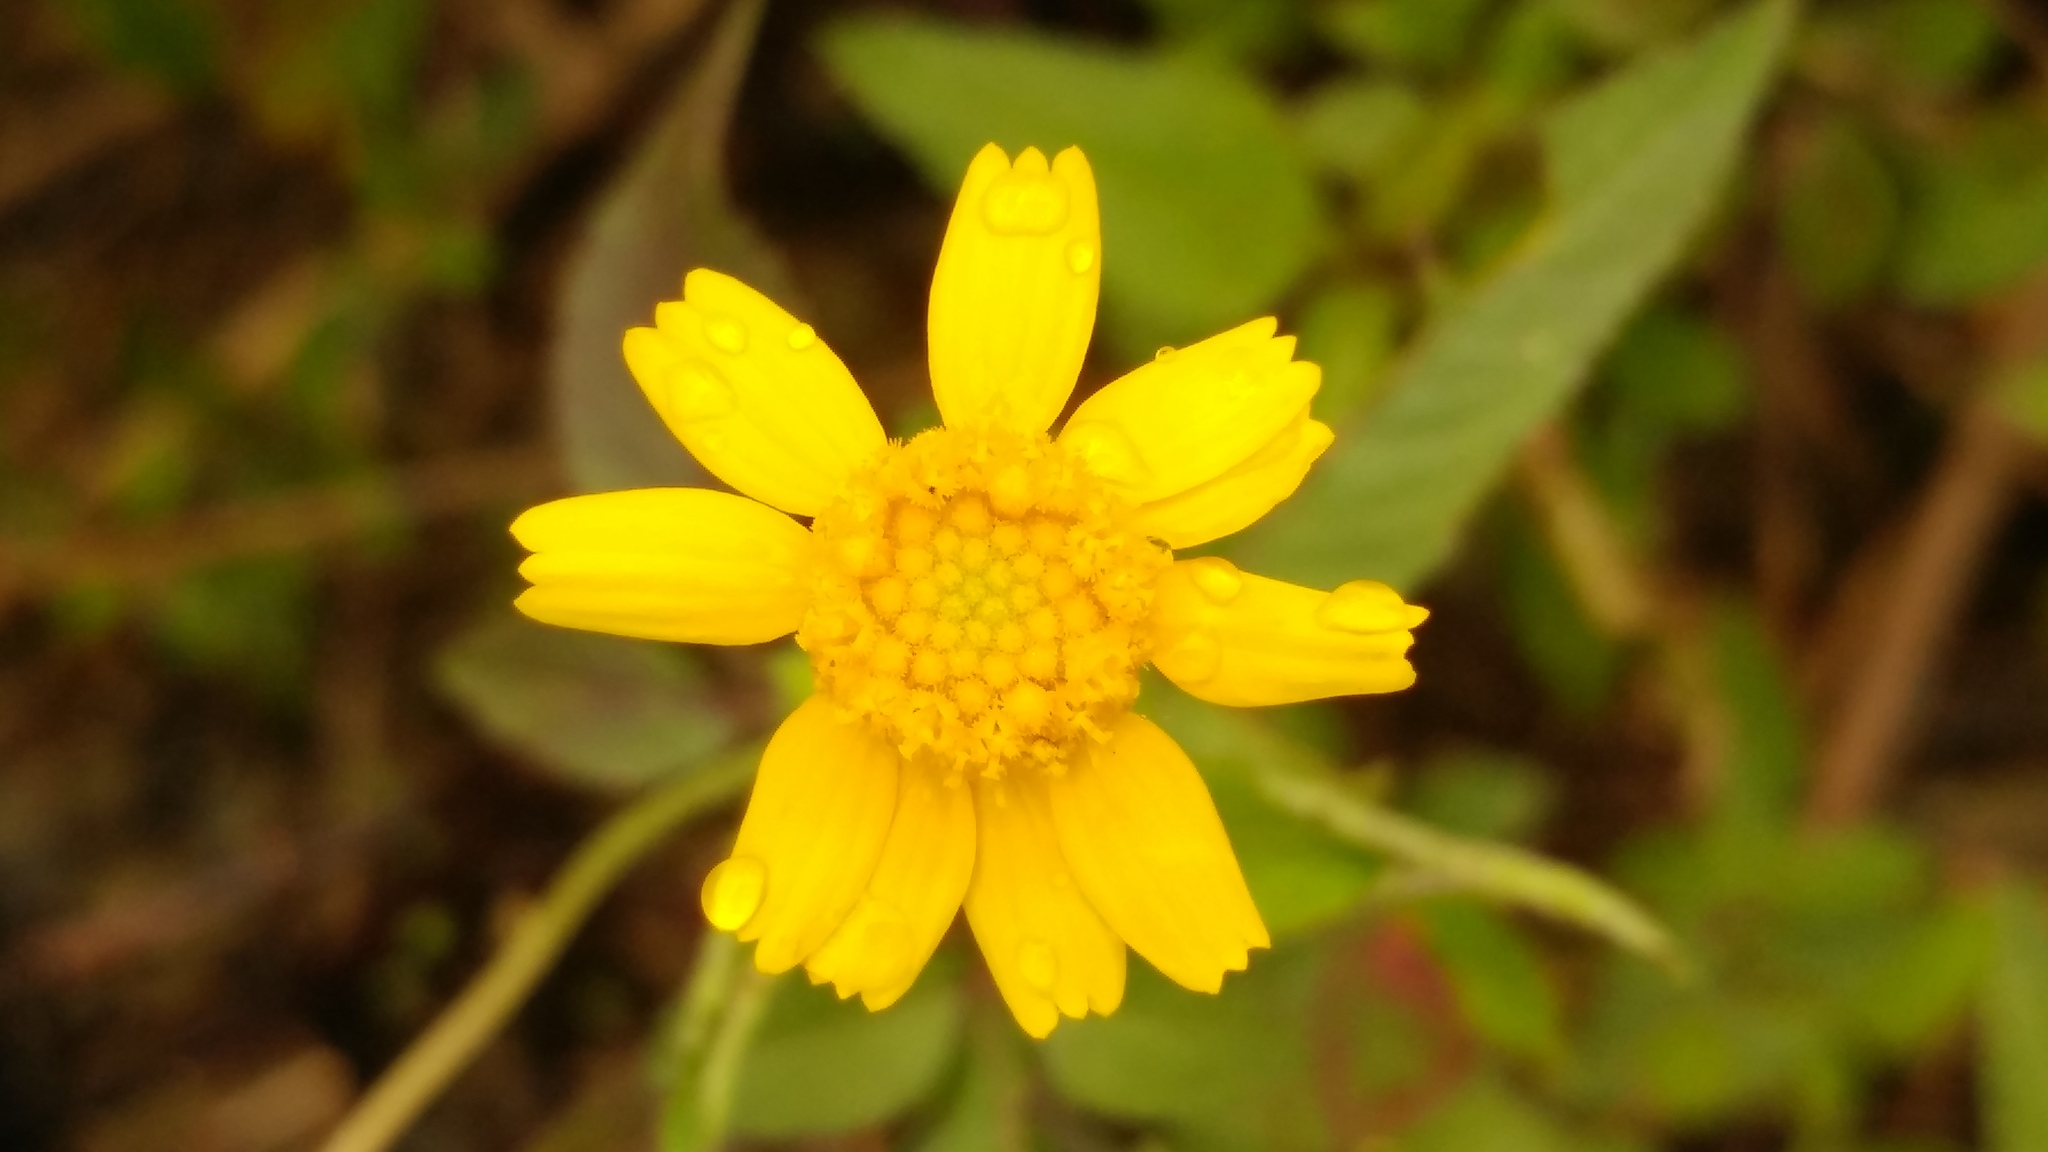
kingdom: Plantae
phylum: Tracheophyta
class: Magnoliopsida
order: Asterales
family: Asteraceae
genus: Tetraneuris
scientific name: Tetraneuris linearifolia
